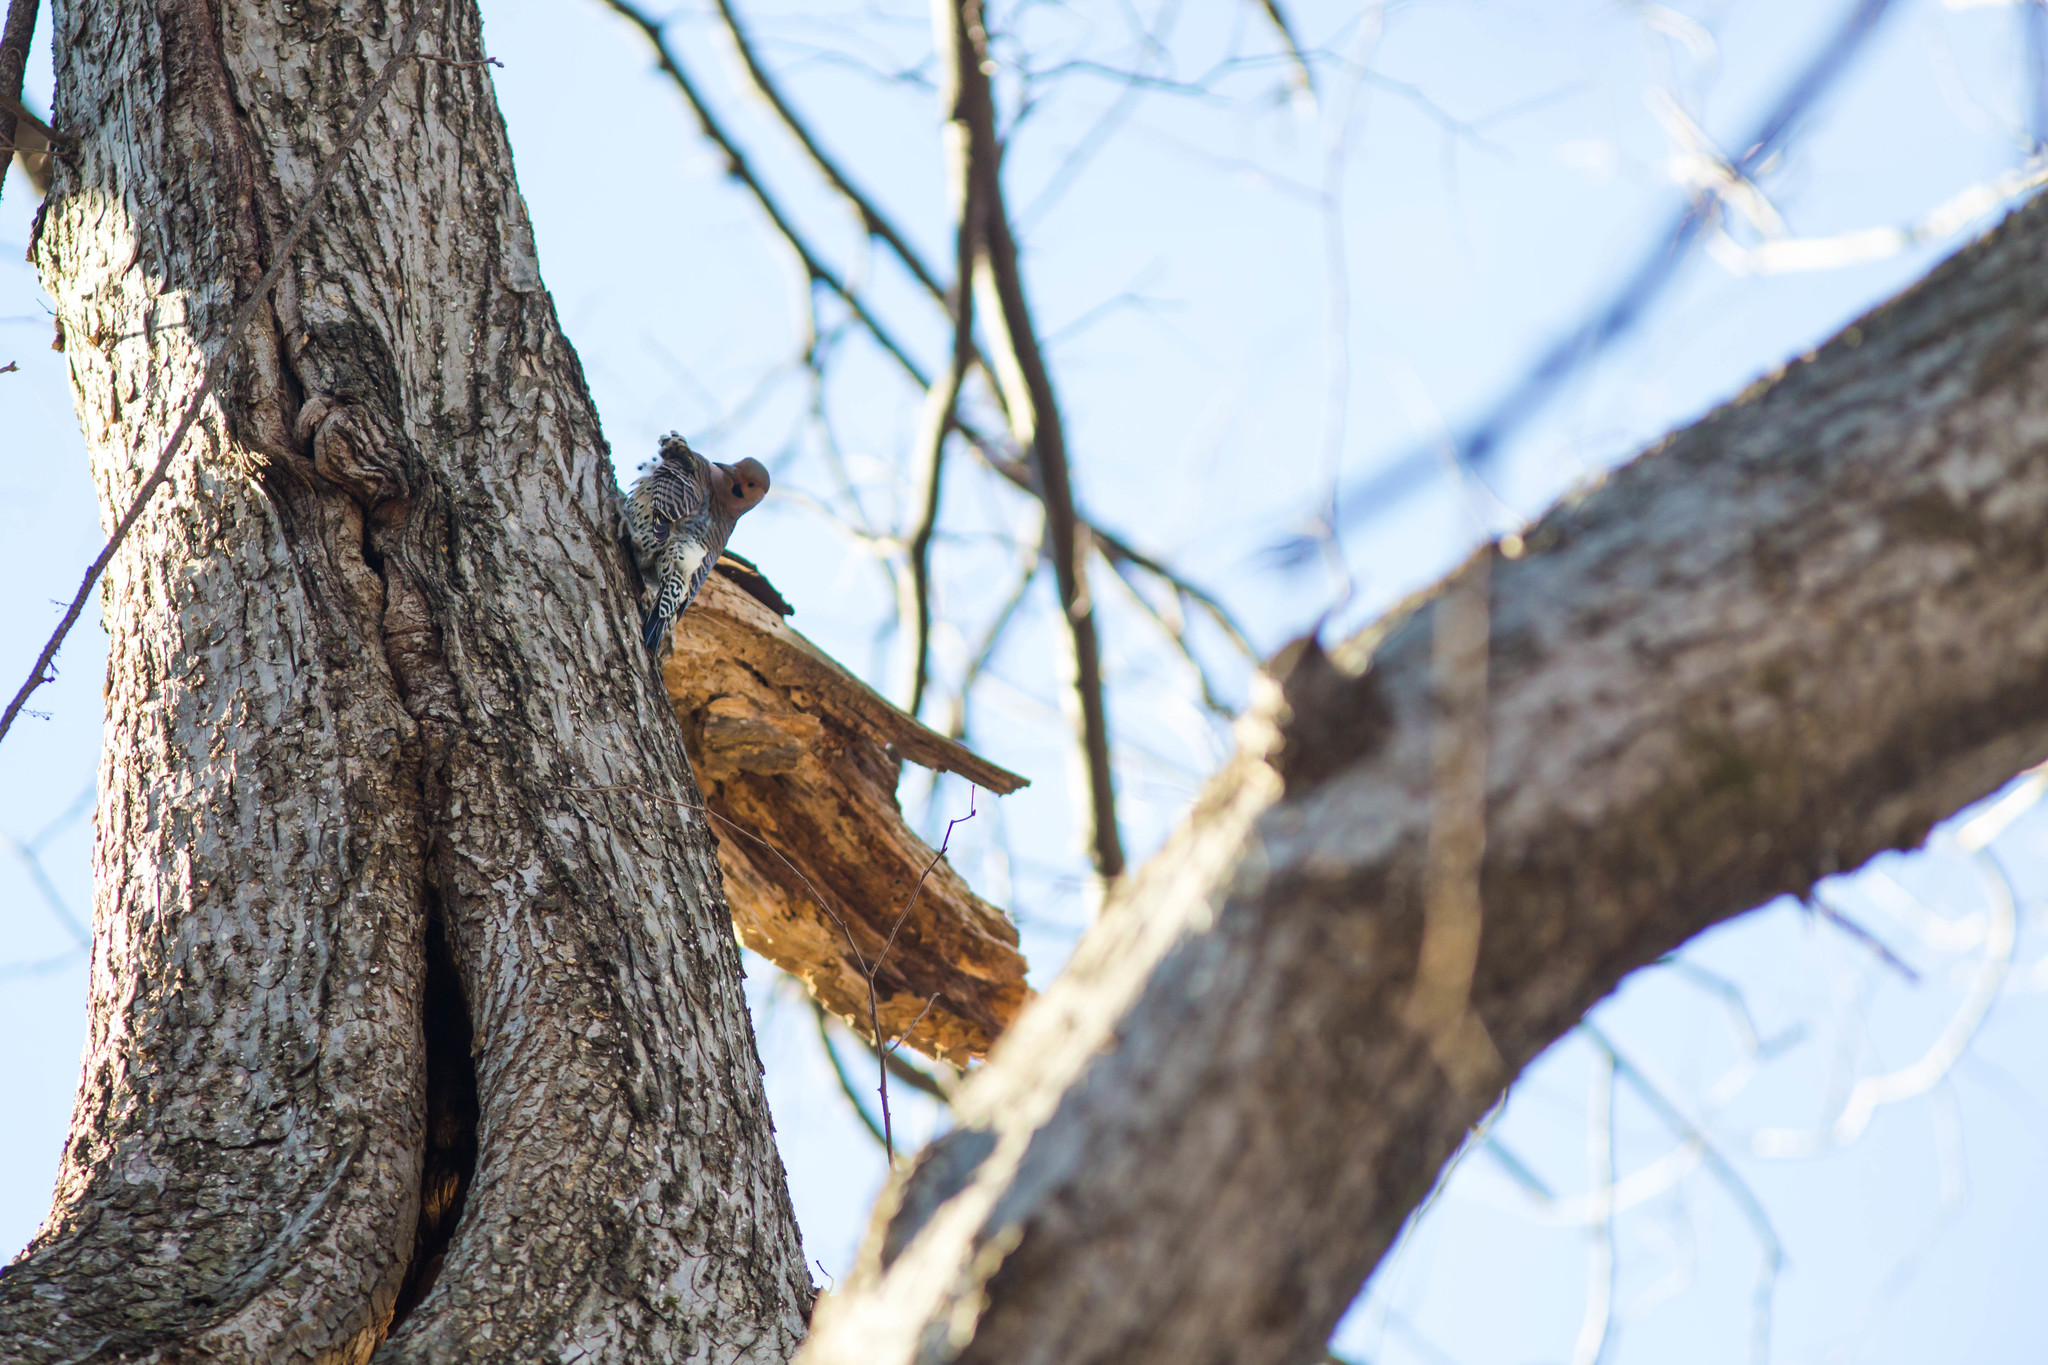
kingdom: Animalia
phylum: Chordata
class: Aves
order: Piciformes
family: Picidae
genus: Colaptes
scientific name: Colaptes auratus
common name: Northern flicker
